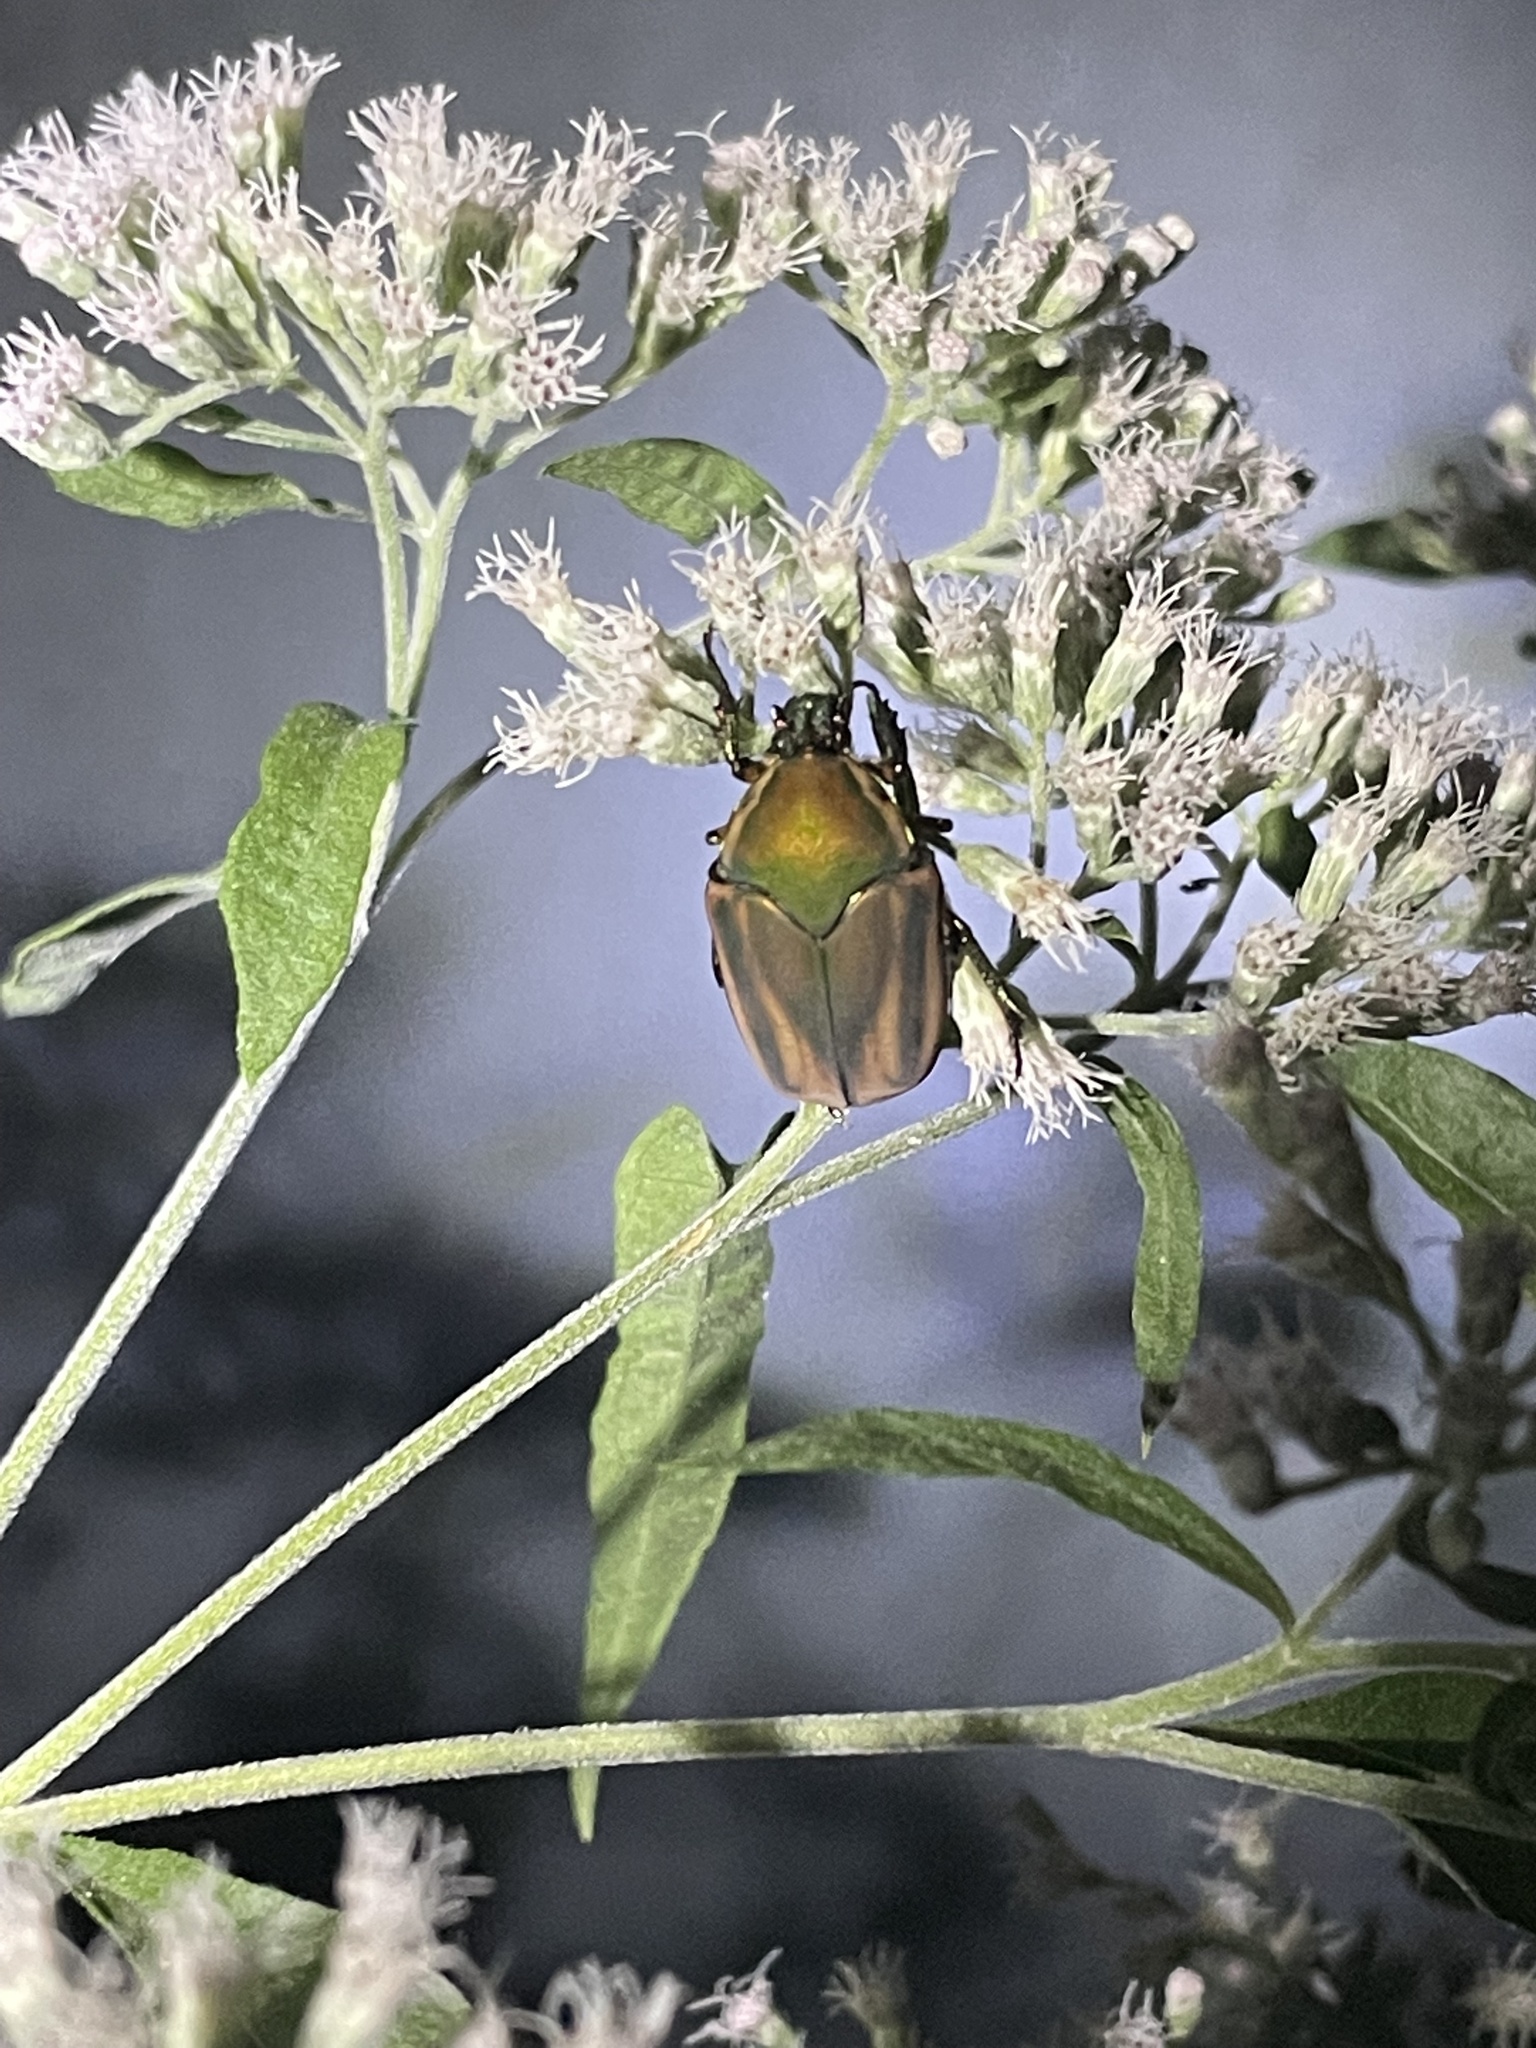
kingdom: Animalia
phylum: Arthropoda
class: Insecta
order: Coleoptera
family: Scarabaeidae
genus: Cotinis
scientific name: Cotinis nitida
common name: Common green june beetle
